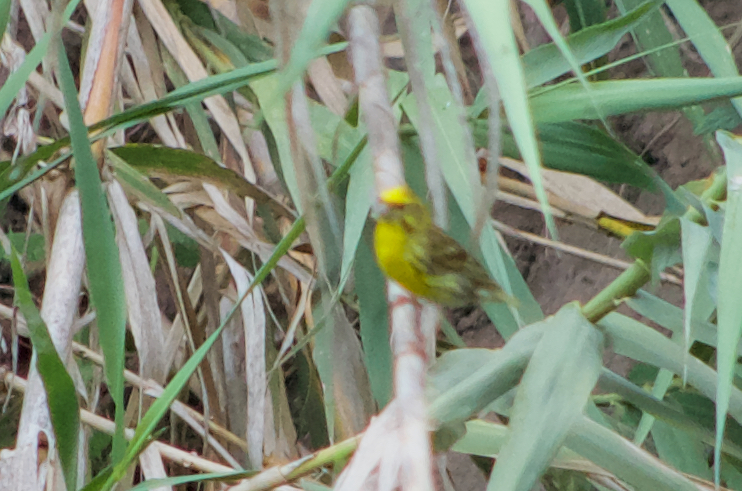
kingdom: Animalia
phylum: Chordata
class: Aves
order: Passeriformes
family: Fringillidae
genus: Serinus
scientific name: Serinus serinus
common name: European serin
